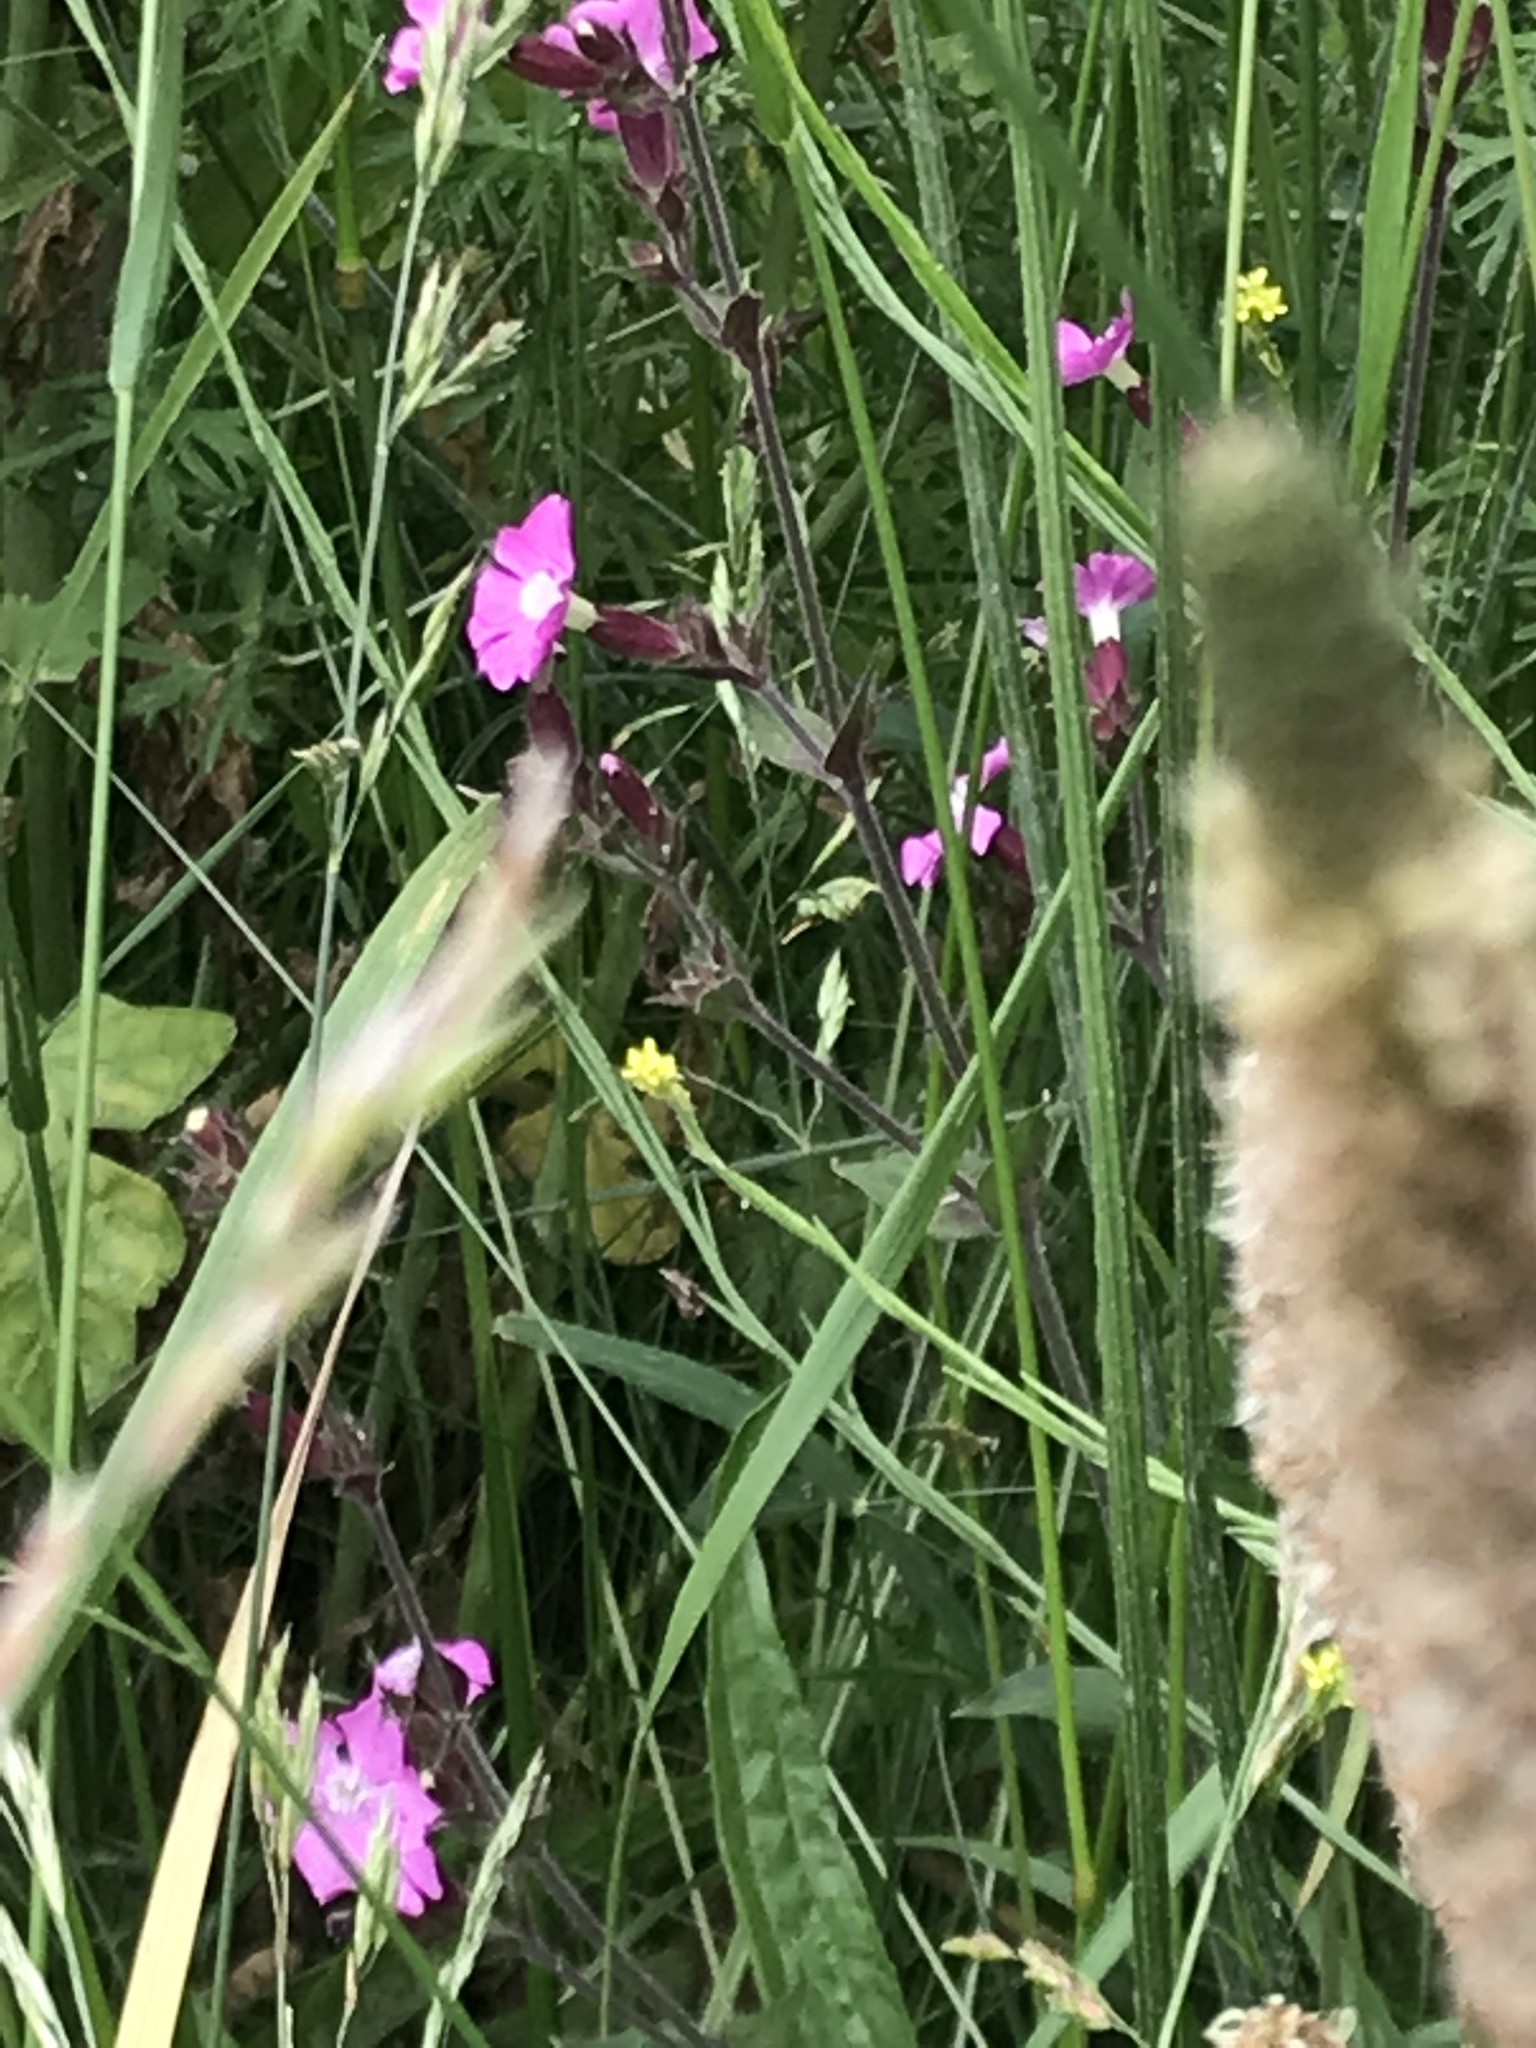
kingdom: Plantae
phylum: Tracheophyta
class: Magnoliopsida
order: Myrtales
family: Onagraceae
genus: Epilobium
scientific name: Epilobium hirsutum
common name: Great willowherb
